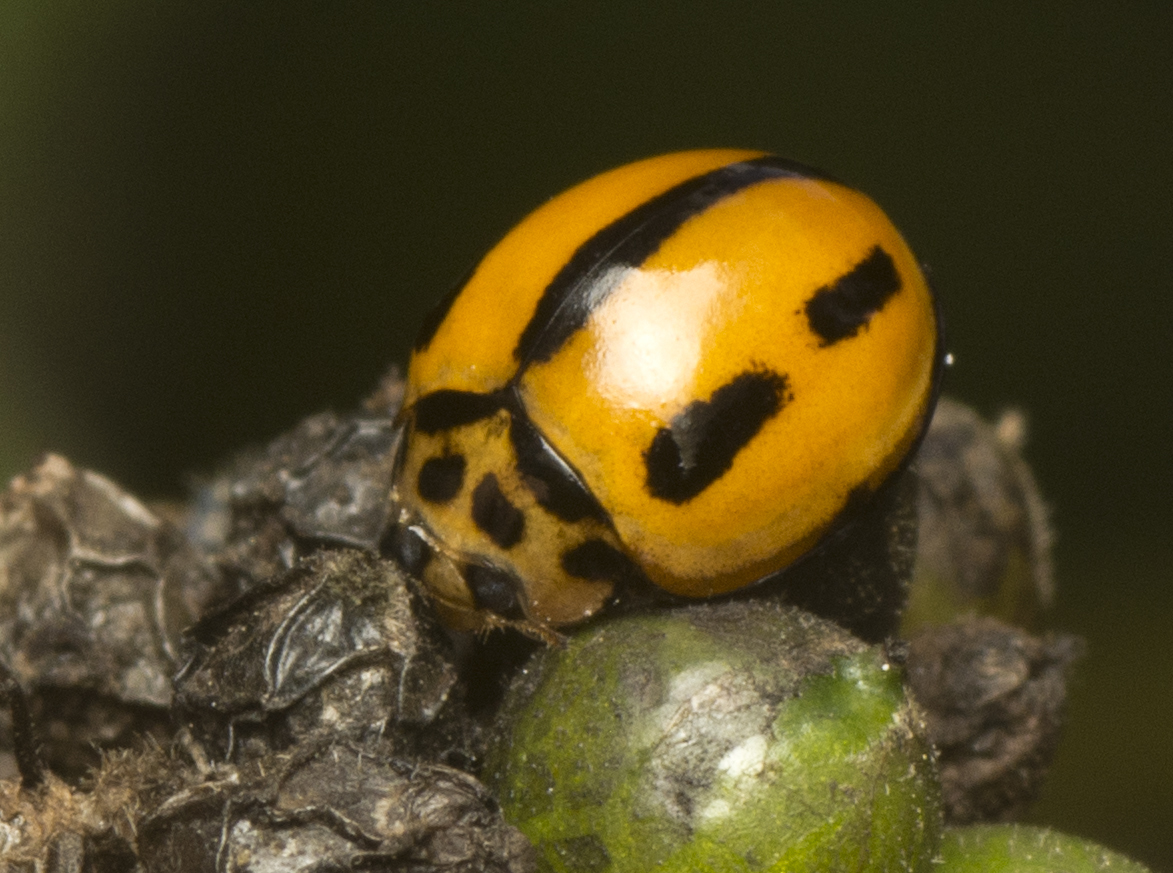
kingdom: Animalia
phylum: Arthropoda
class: Insecta
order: Coleoptera
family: Coccinellidae
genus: Coelophora
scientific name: Coelophora inaequalis
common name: Common australian lady beetle
